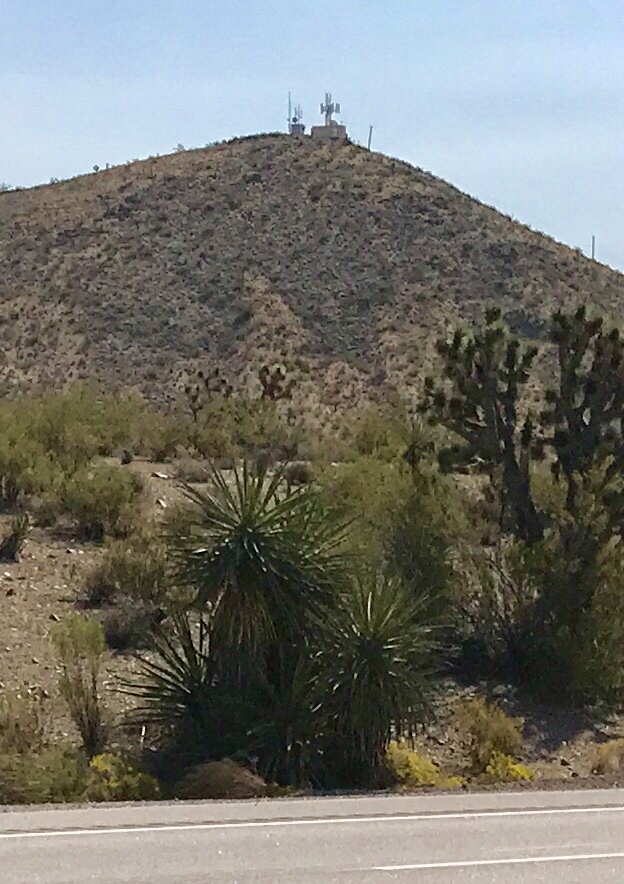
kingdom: Plantae
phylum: Tracheophyta
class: Liliopsida
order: Asparagales
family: Asparagaceae
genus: Yucca
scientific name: Yucca schidigera
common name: Mojave yucca
